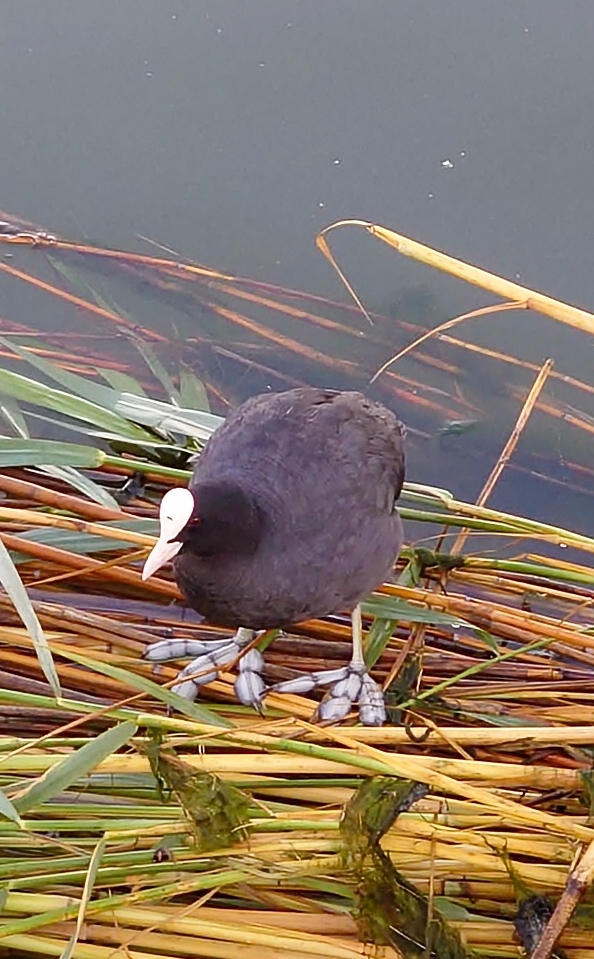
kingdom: Animalia
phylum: Chordata
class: Aves
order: Gruiformes
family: Rallidae
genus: Fulica
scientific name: Fulica atra
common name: Eurasian coot
